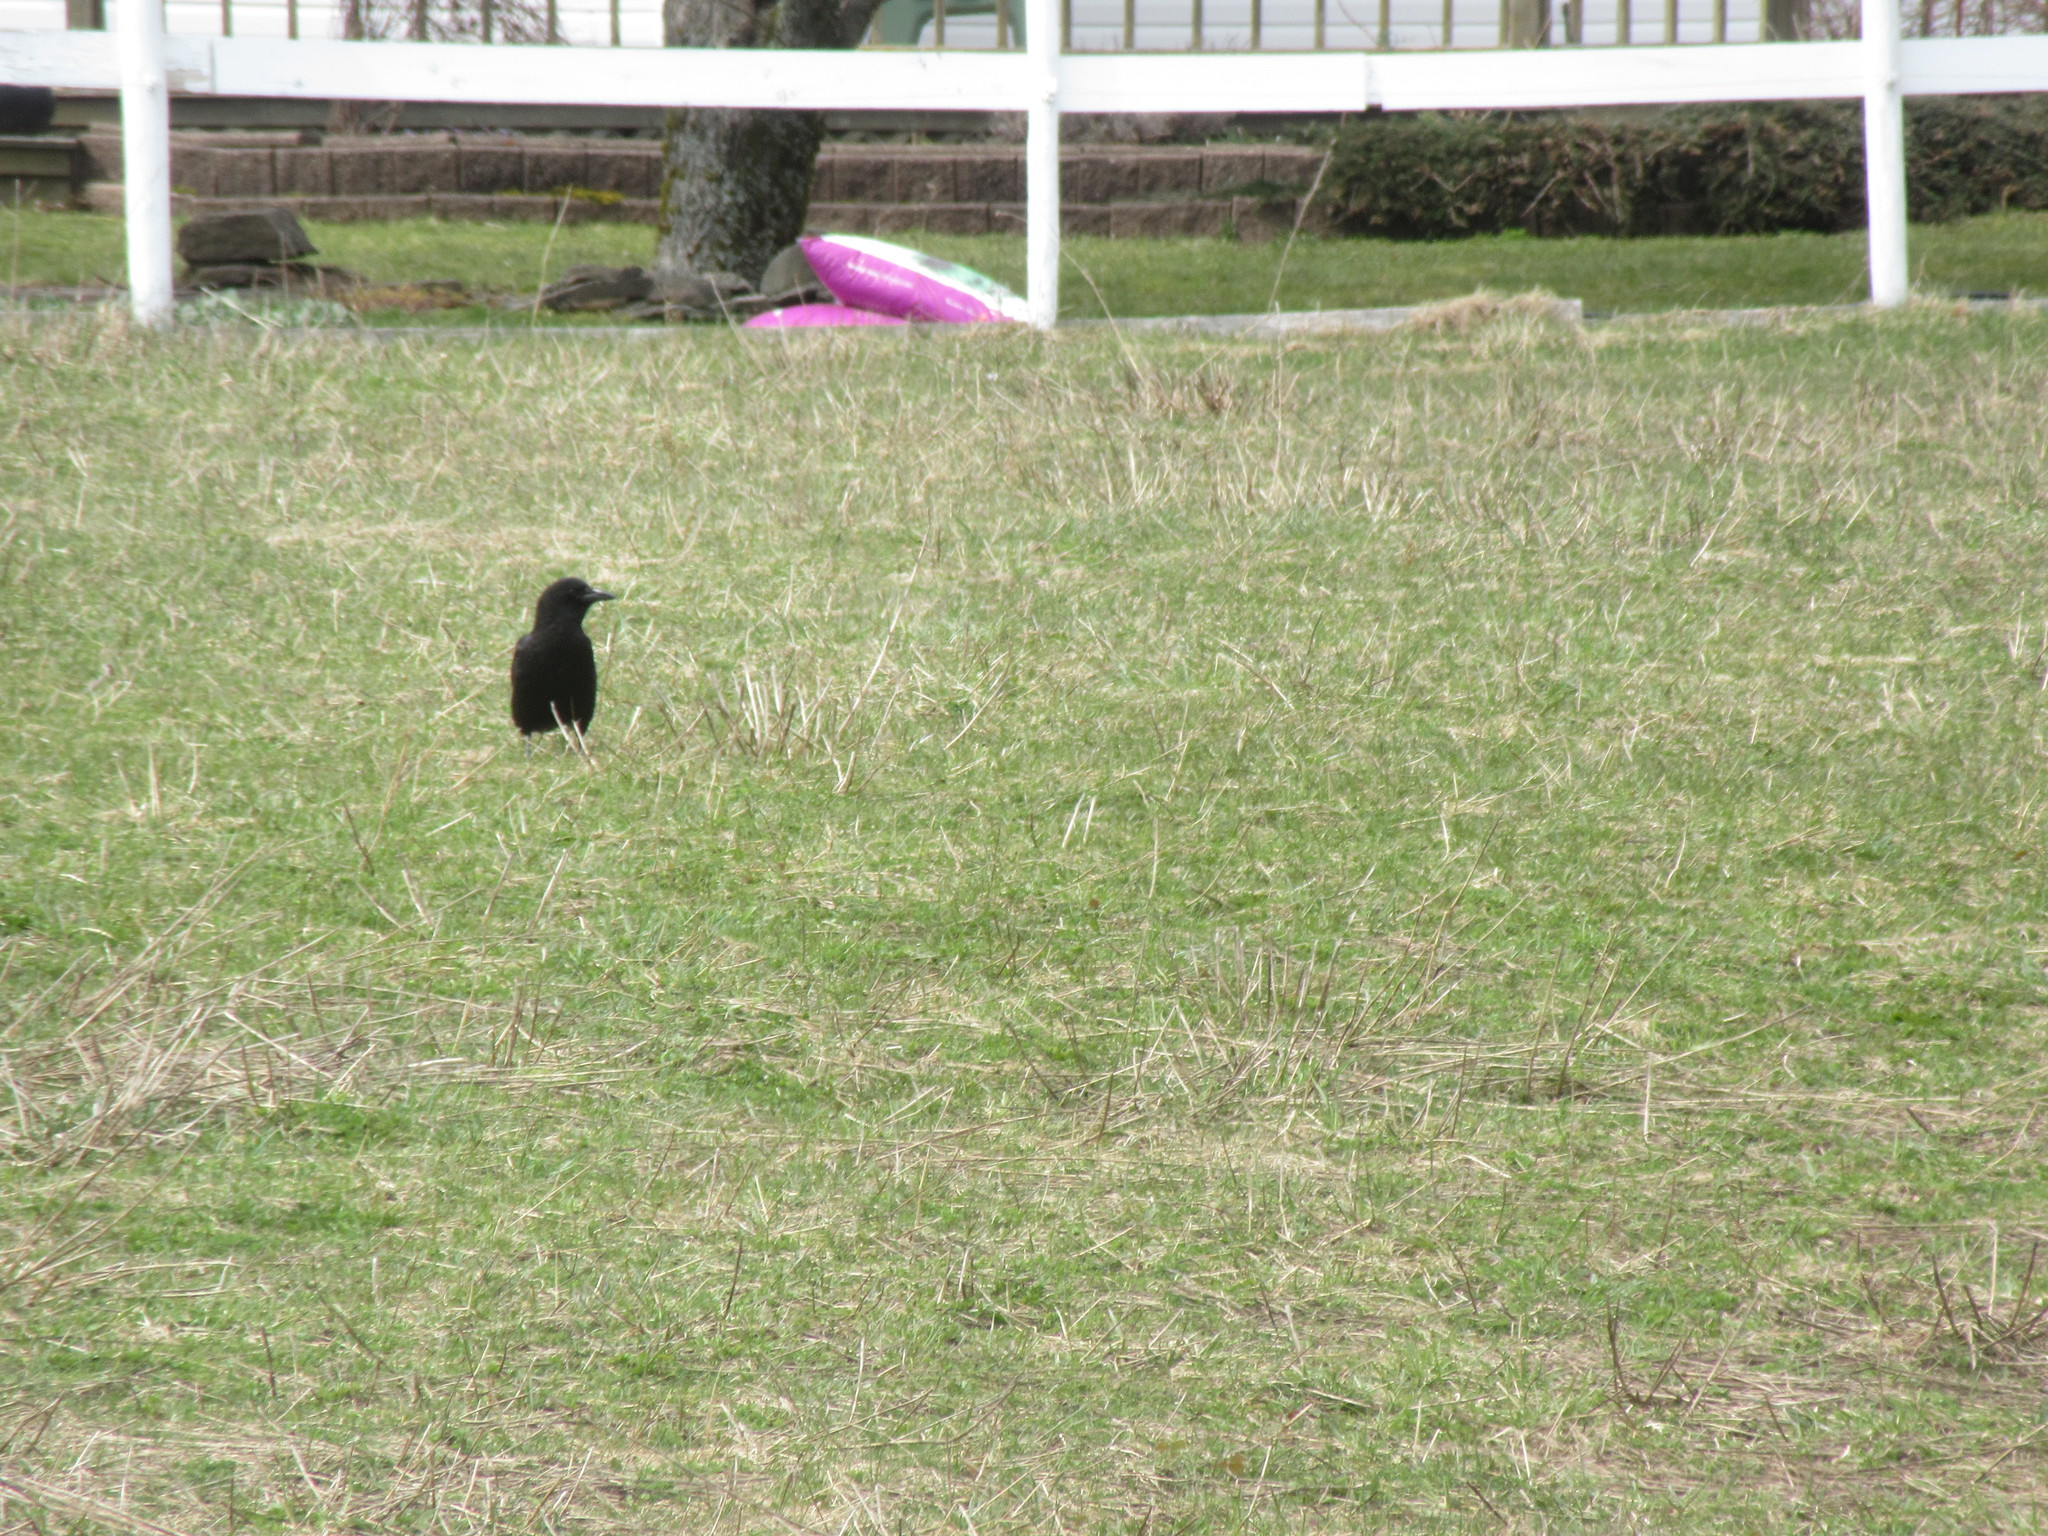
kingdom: Animalia
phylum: Chordata
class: Aves
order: Passeriformes
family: Corvidae
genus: Corvus
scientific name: Corvus brachyrhynchos
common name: American crow
